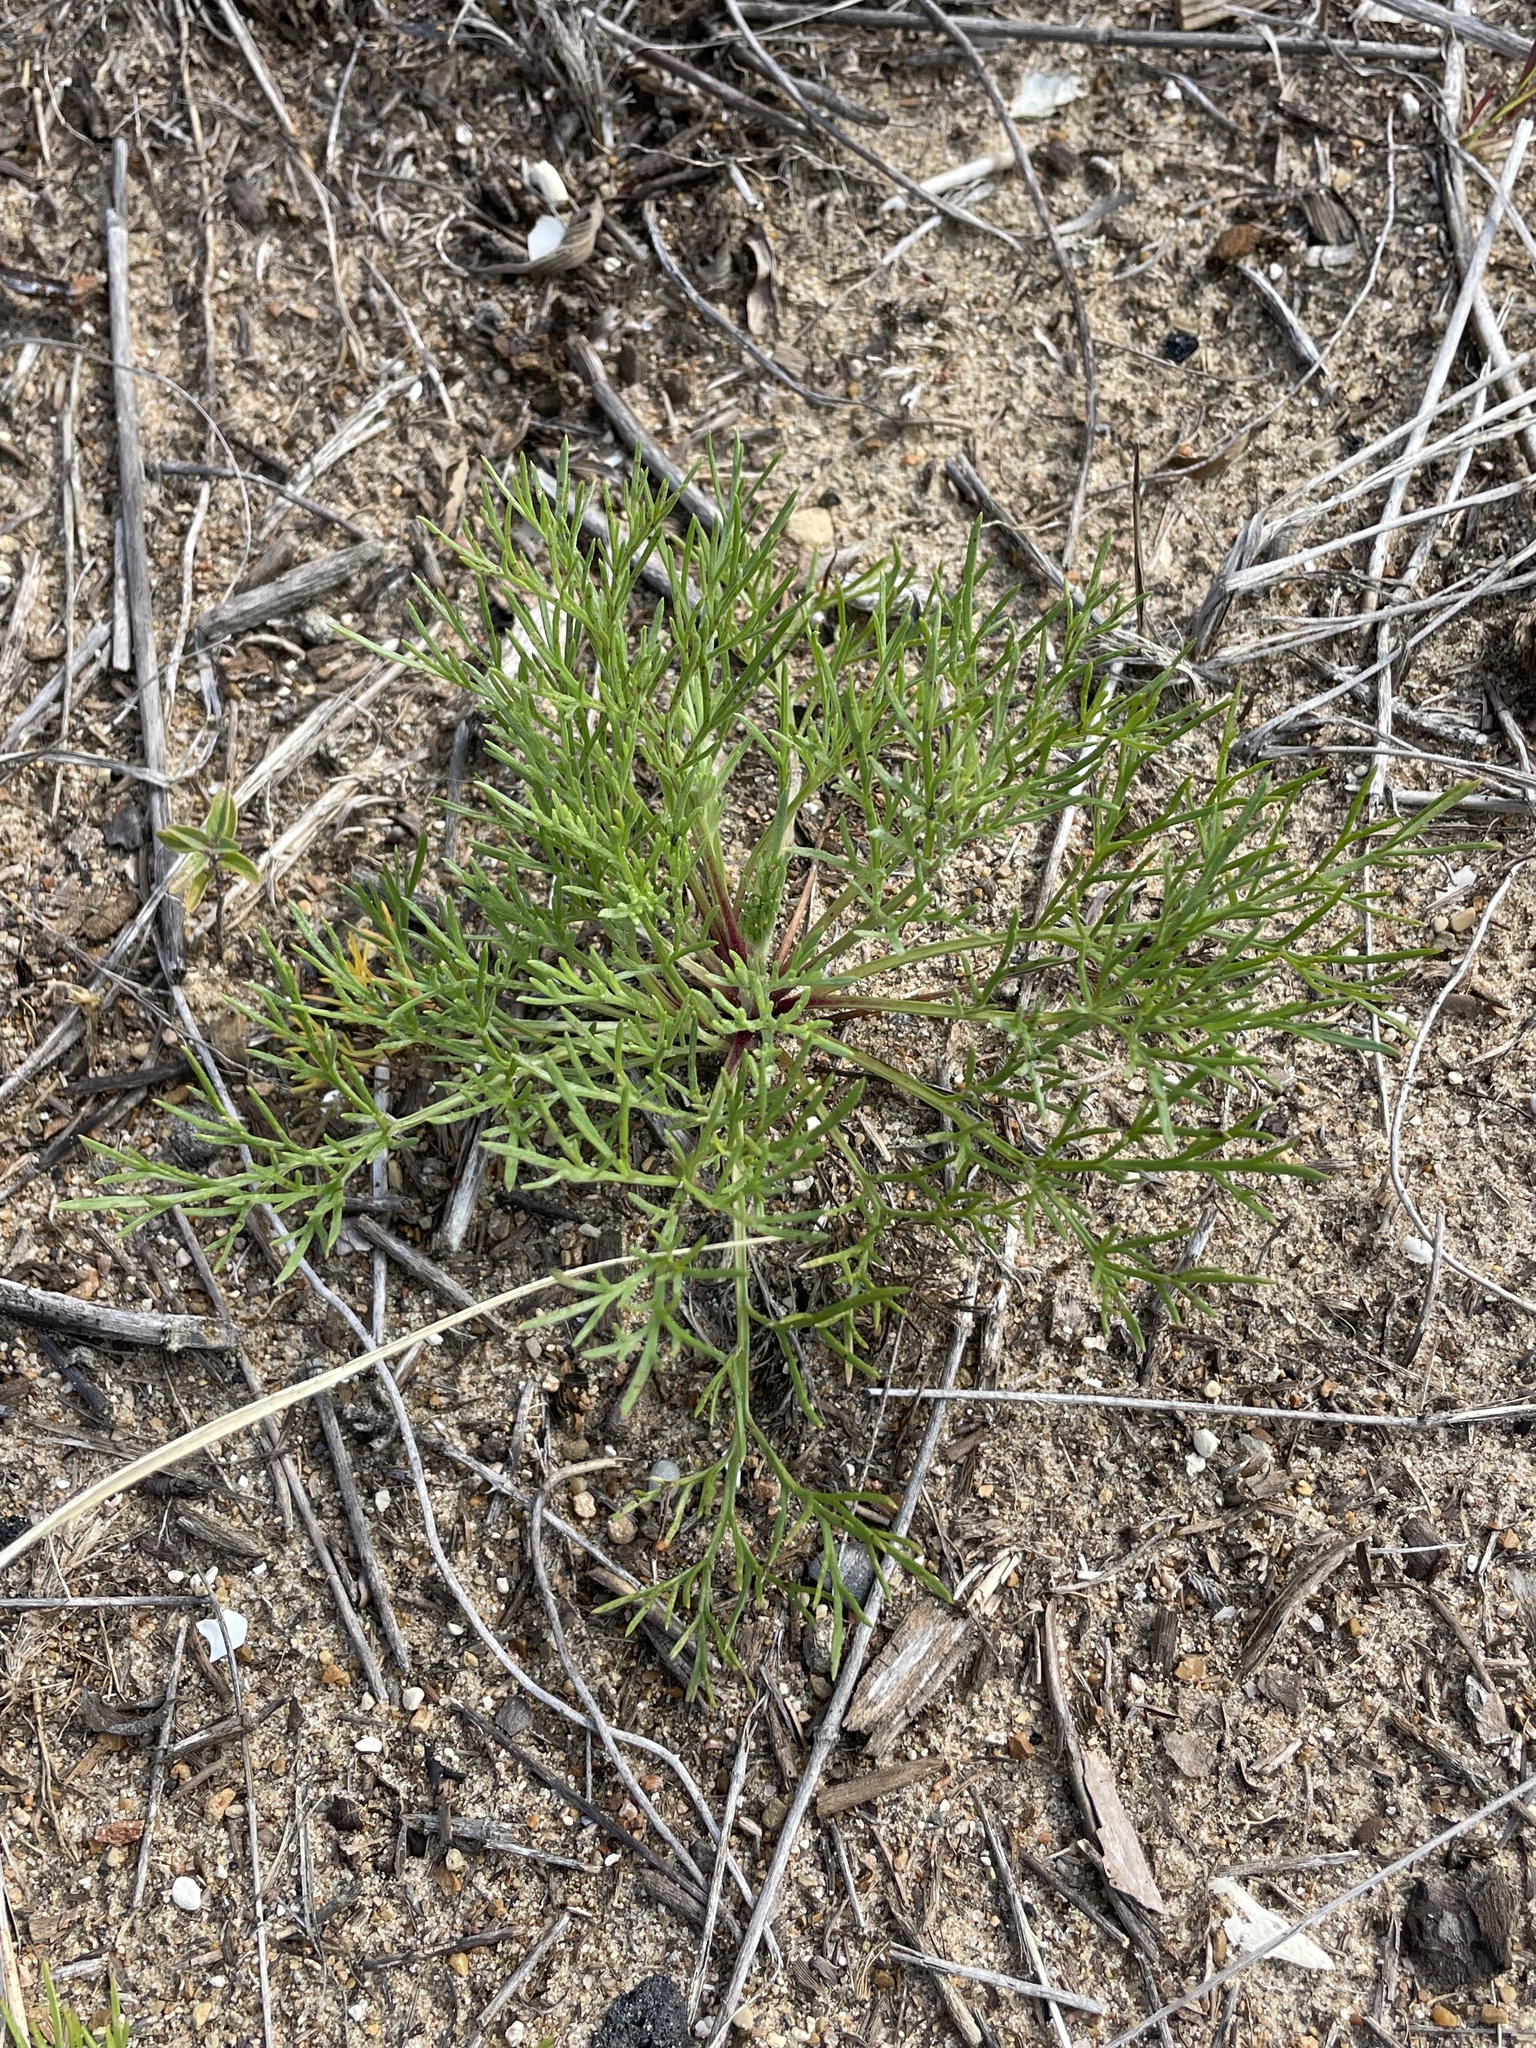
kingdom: Plantae
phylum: Tracheophyta
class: Magnoliopsida
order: Asterales
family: Asteraceae
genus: Artemisia
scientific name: Artemisia campestris
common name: Field wormwood
